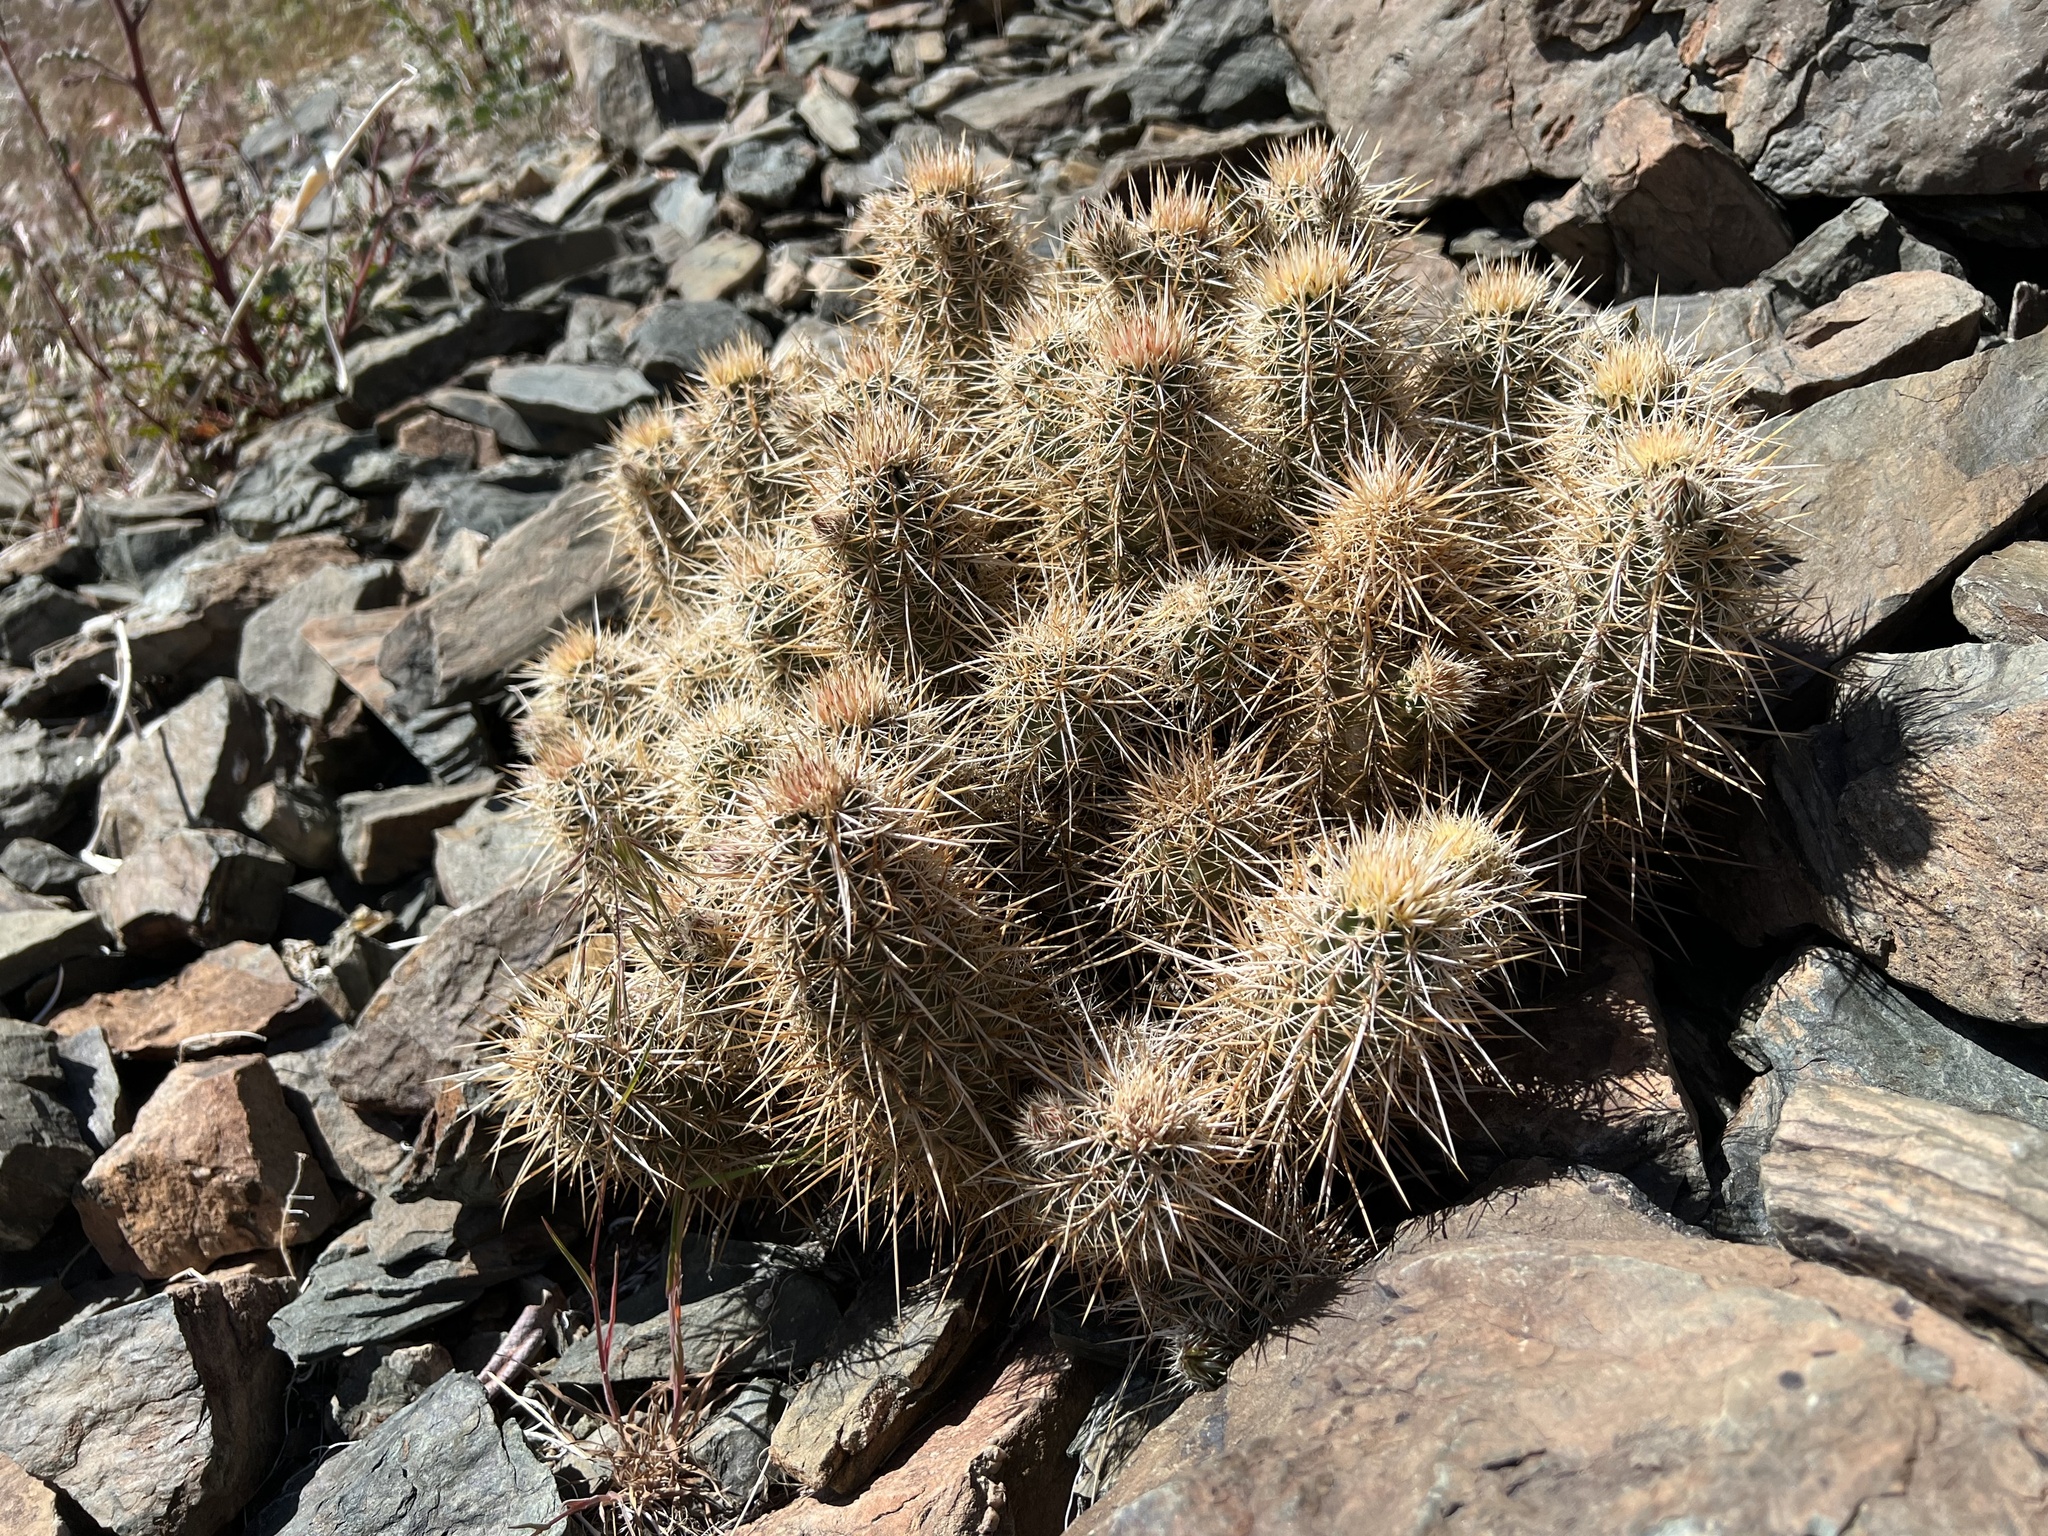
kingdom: Plantae
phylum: Tracheophyta
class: Magnoliopsida
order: Caryophyllales
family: Cactaceae
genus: Echinocereus
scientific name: Echinocereus engelmannii
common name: Engelmann's hedgehog cactus
